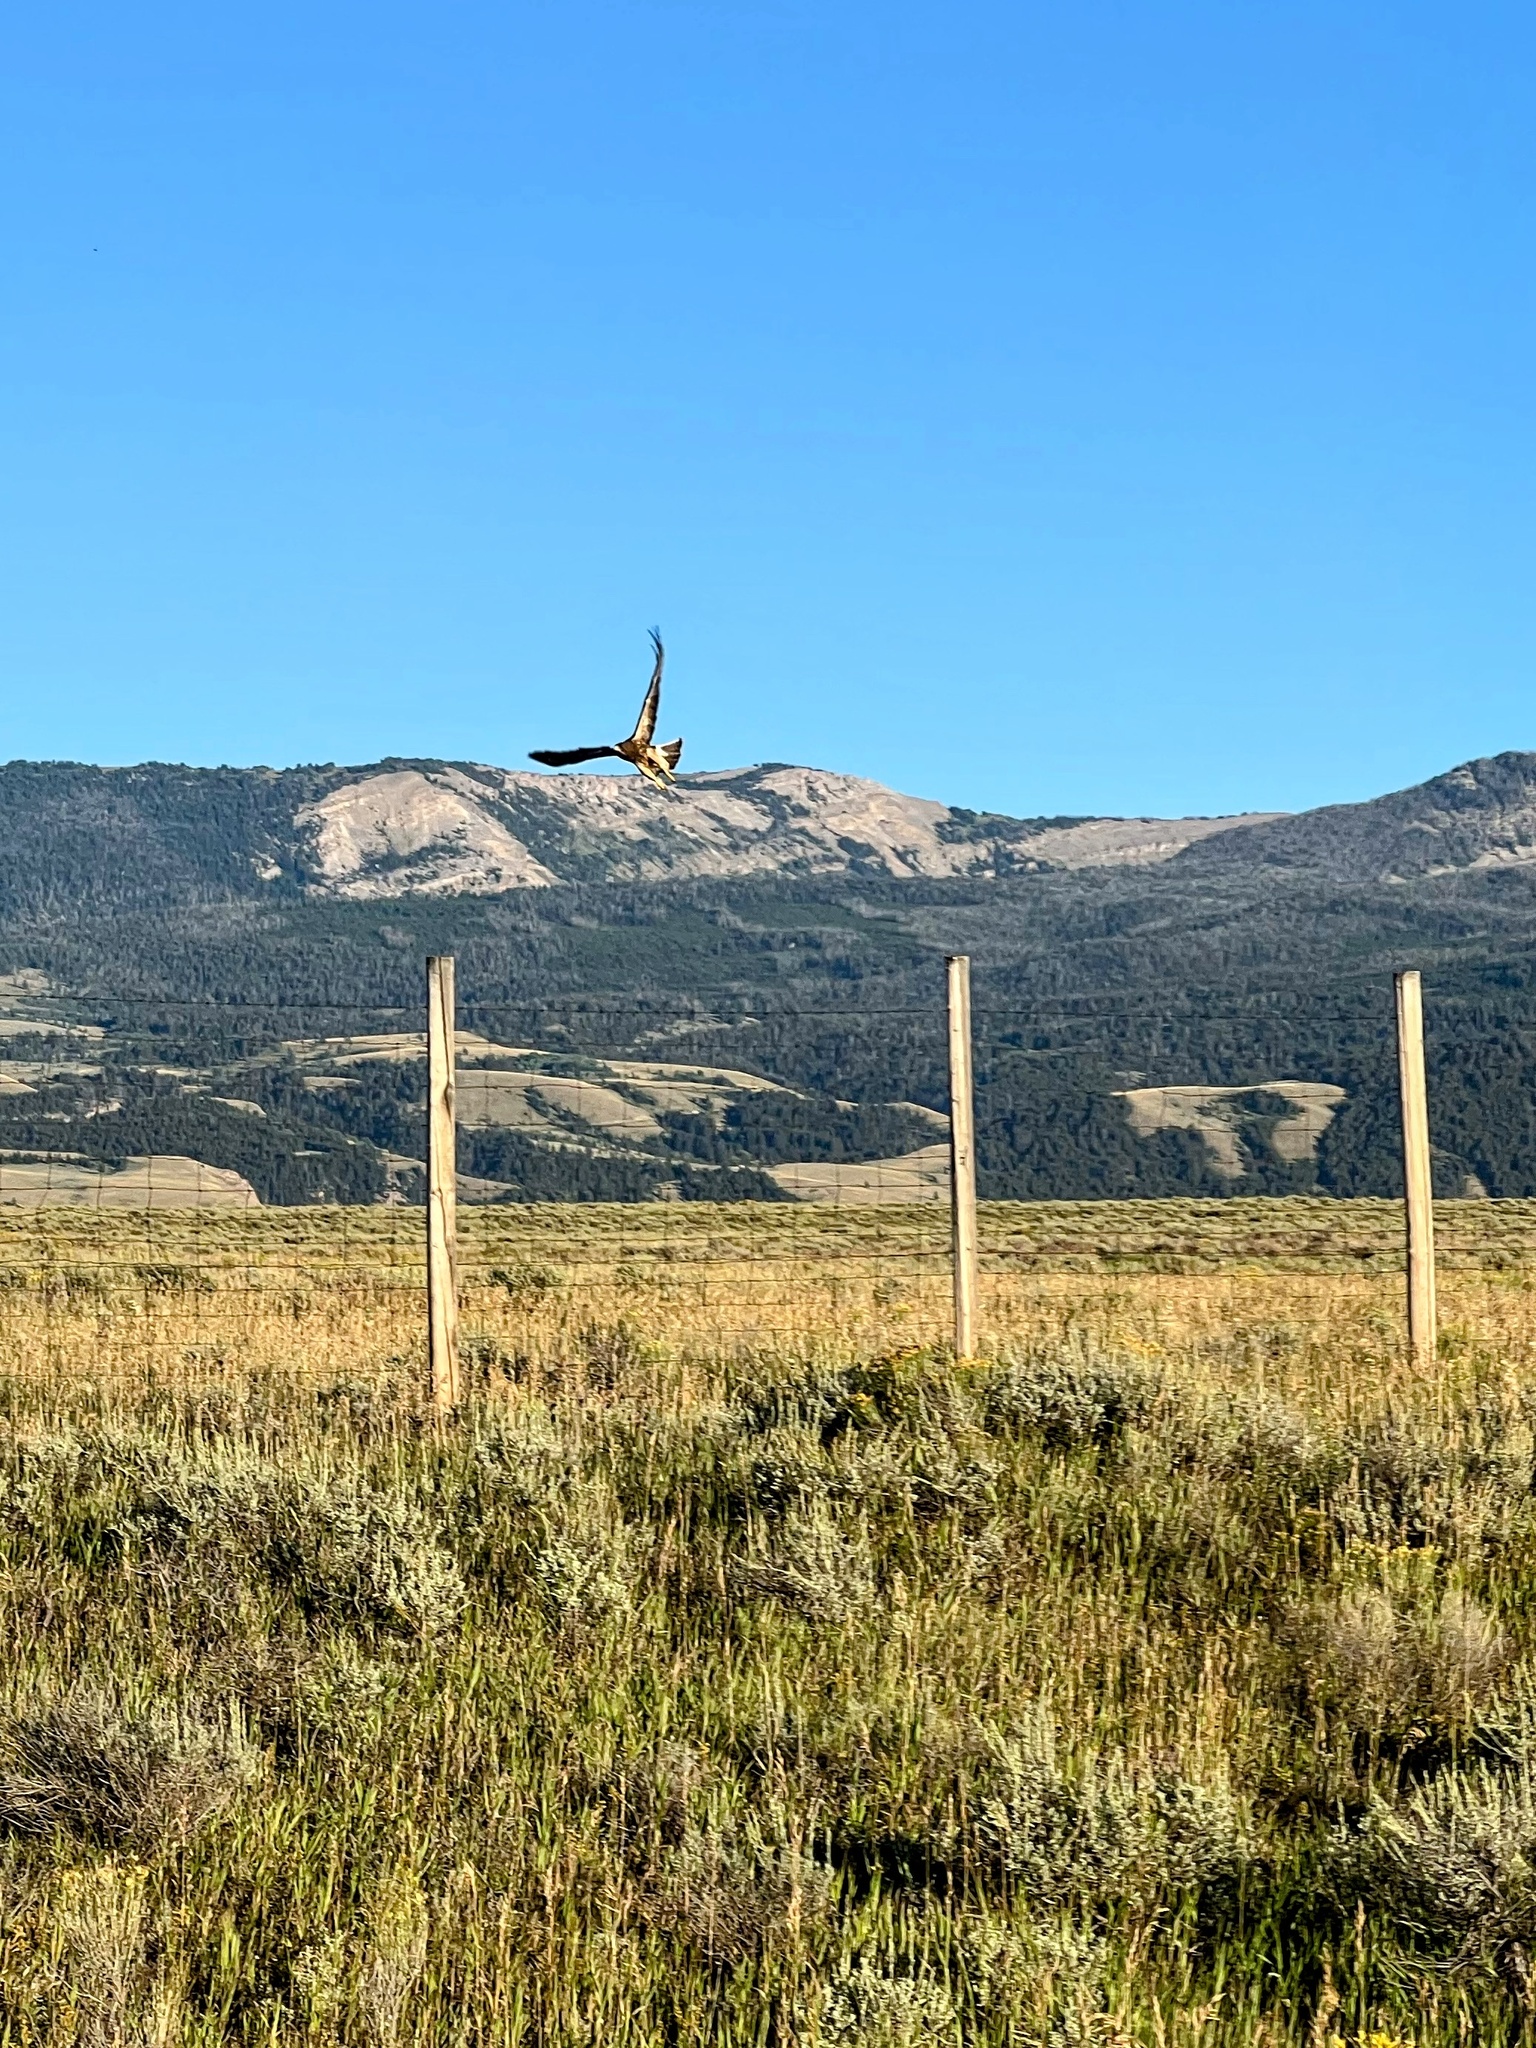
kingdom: Animalia
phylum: Chordata
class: Aves
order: Accipitriformes
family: Accipitridae
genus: Buteo
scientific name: Buteo swainsoni
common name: Swainson's hawk
